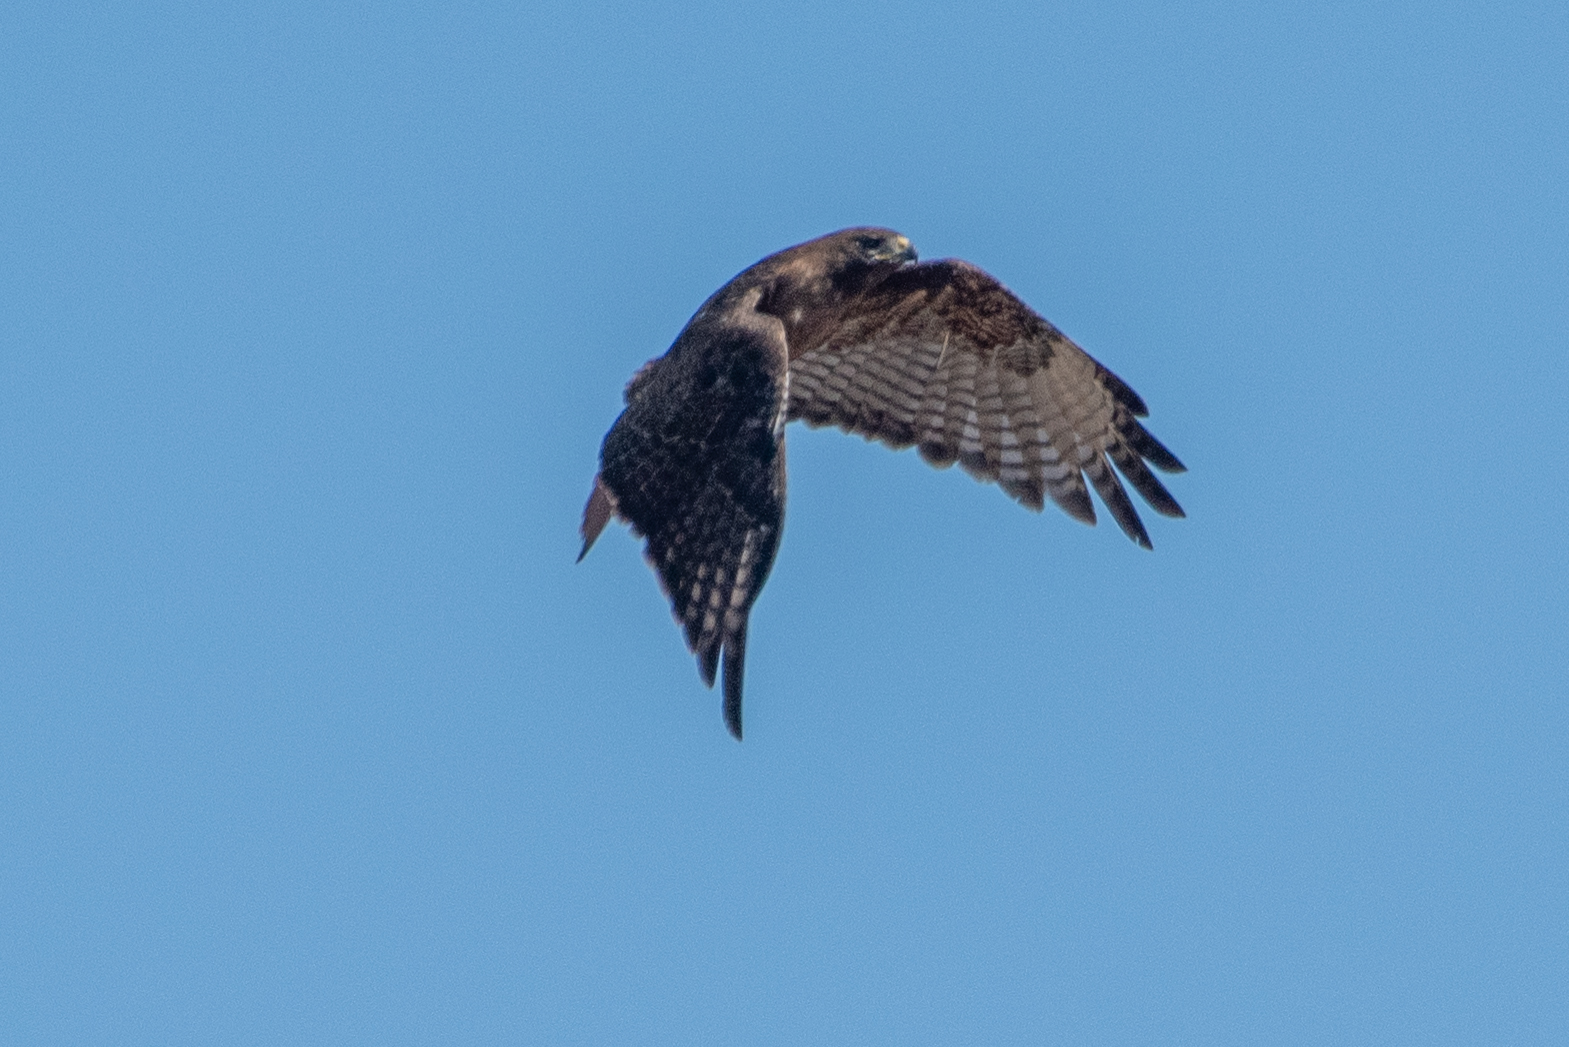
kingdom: Animalia
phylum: Chordata
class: Aves
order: Accipitriformes
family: Accipitridae
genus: Buteo
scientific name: Buteo jamaicensis
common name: Red-tailed hawk
